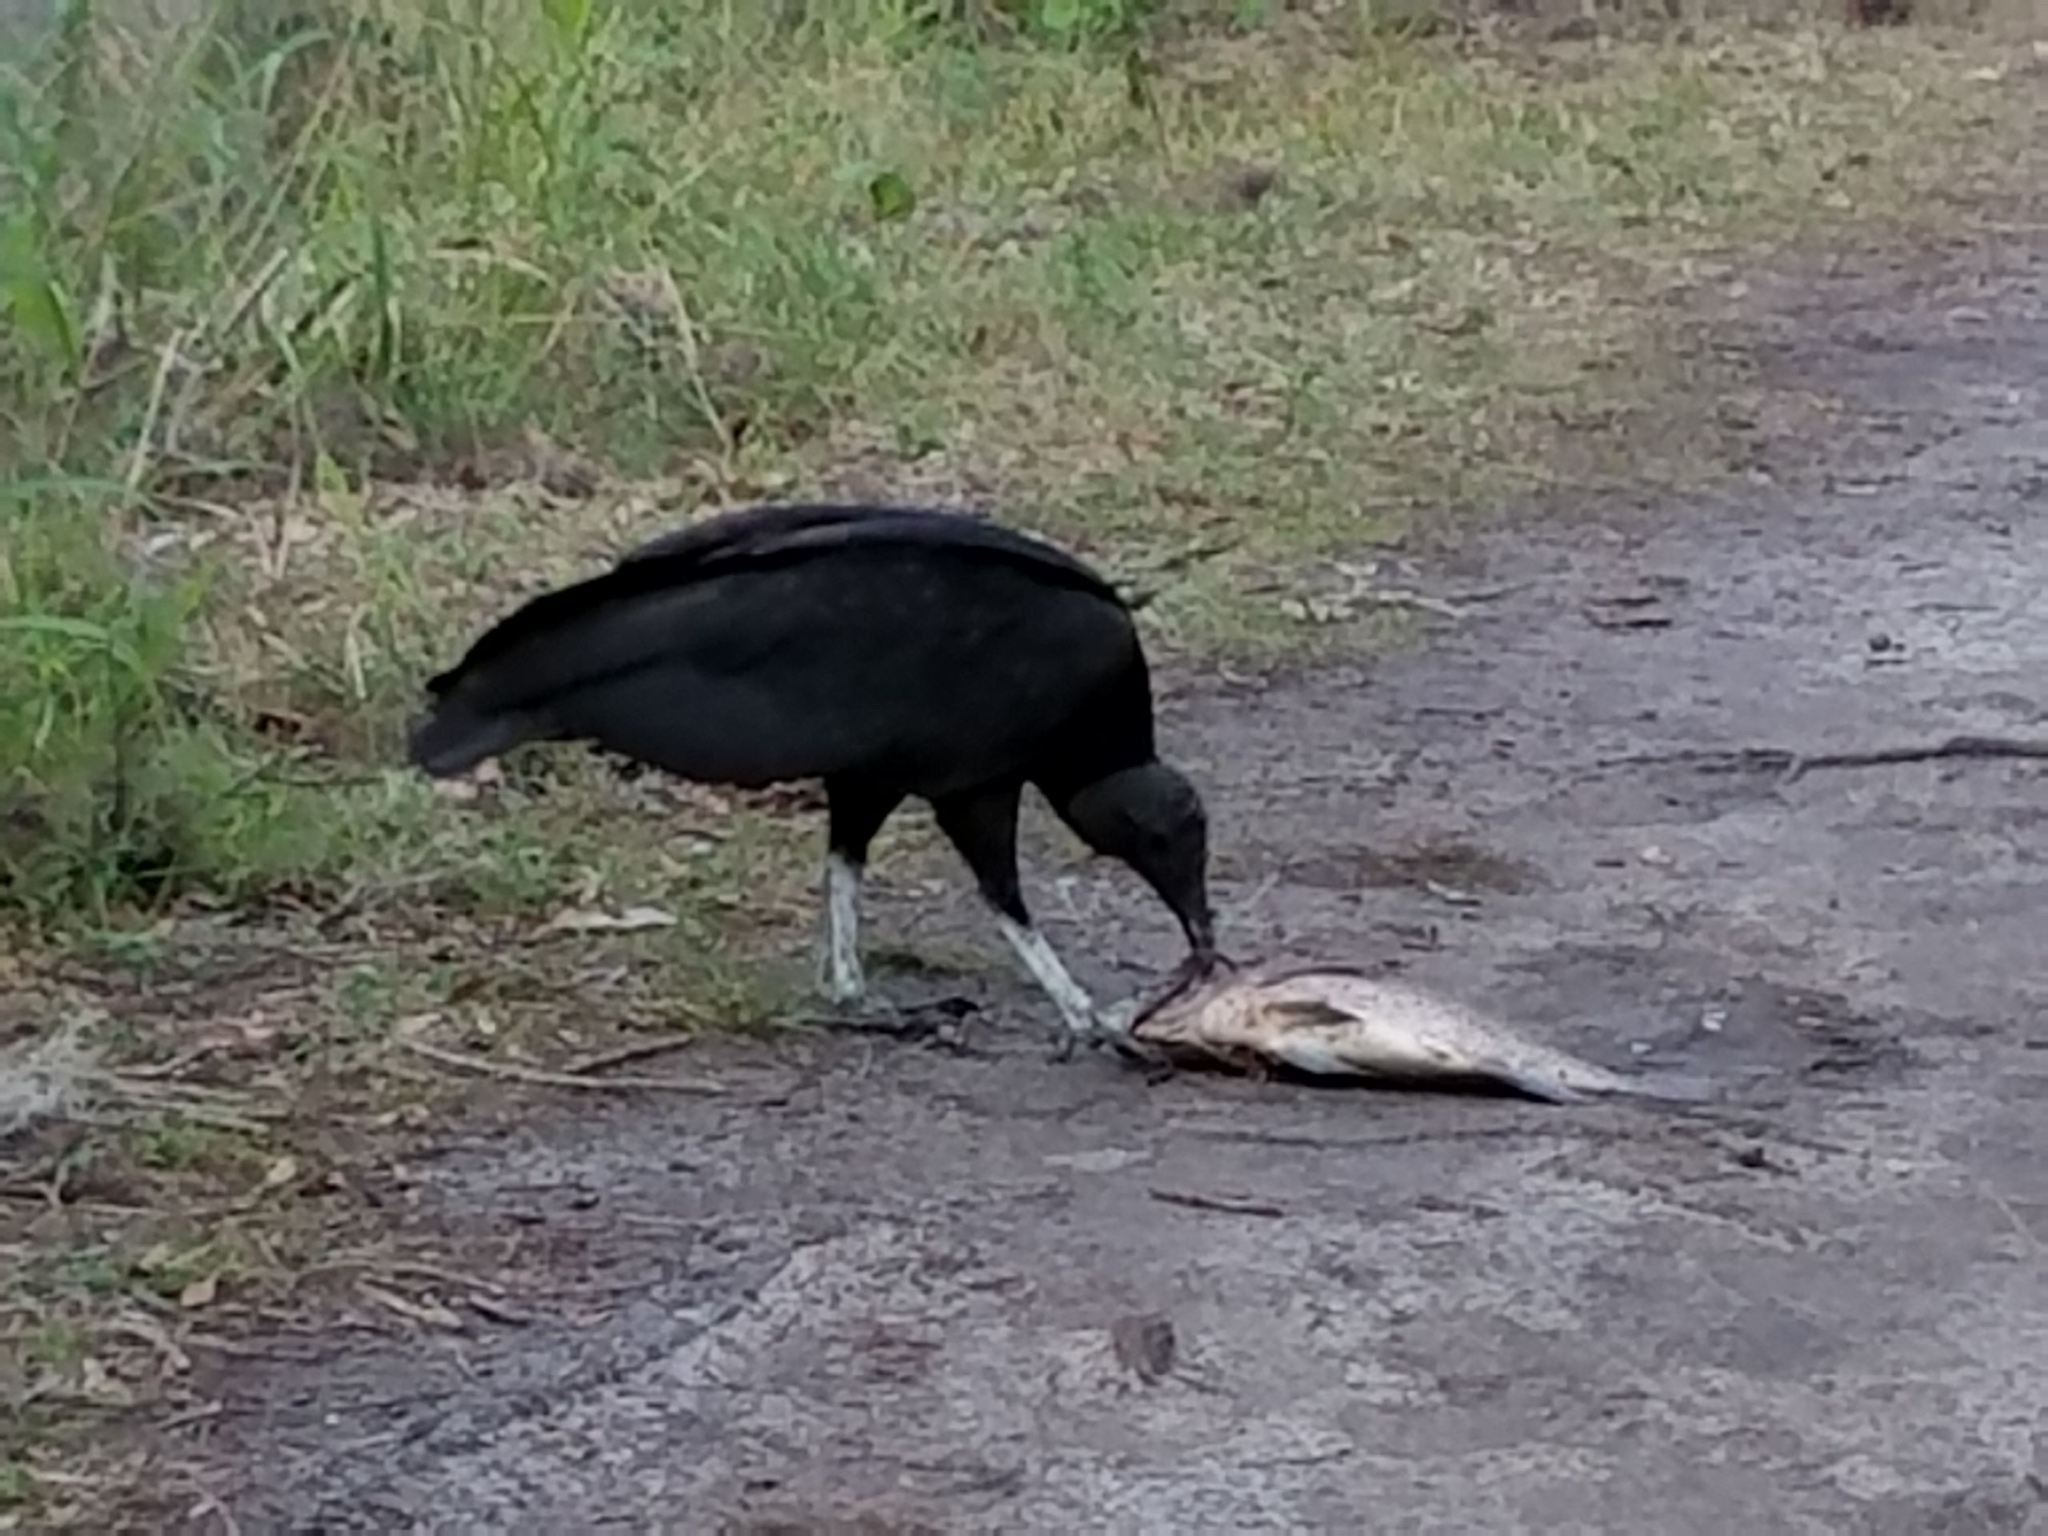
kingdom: Animalia
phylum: Chordata
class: Aves
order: Accipitriformes
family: Cathartidae
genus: Coragyps
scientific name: Coragyps atratus
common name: Black vulture
